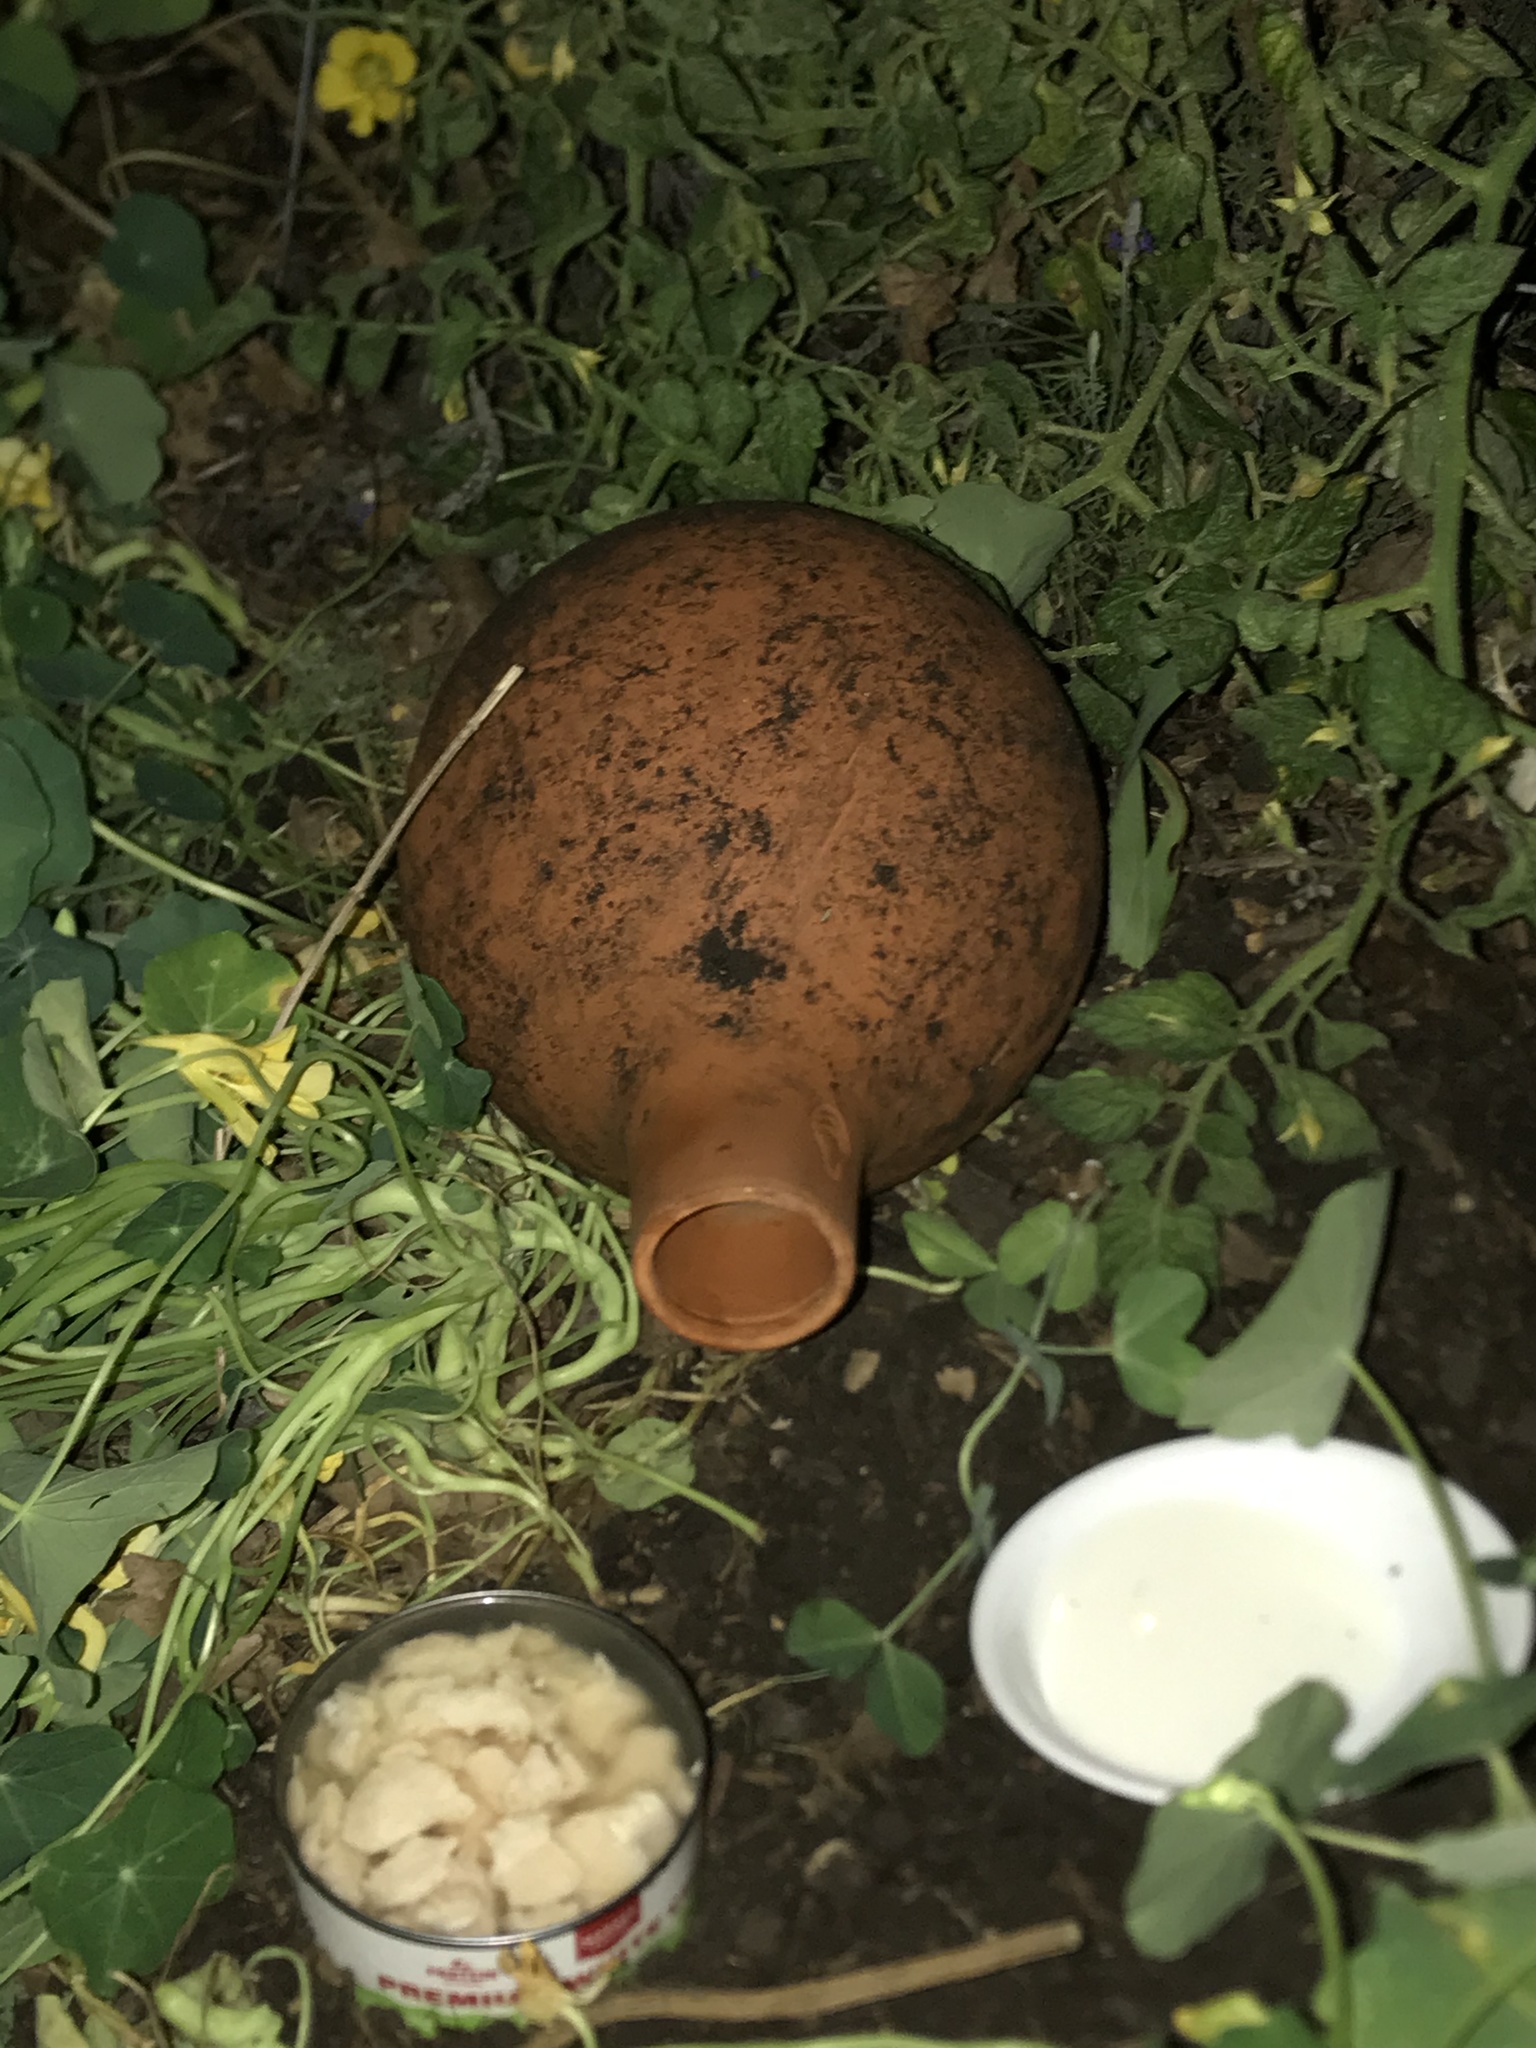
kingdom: Animalia
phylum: Chordata
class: Mammalia
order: Didelphimorphia
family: Didelphidae
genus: Didelphis
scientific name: Didelphis virginiana
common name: Virginia opossum
